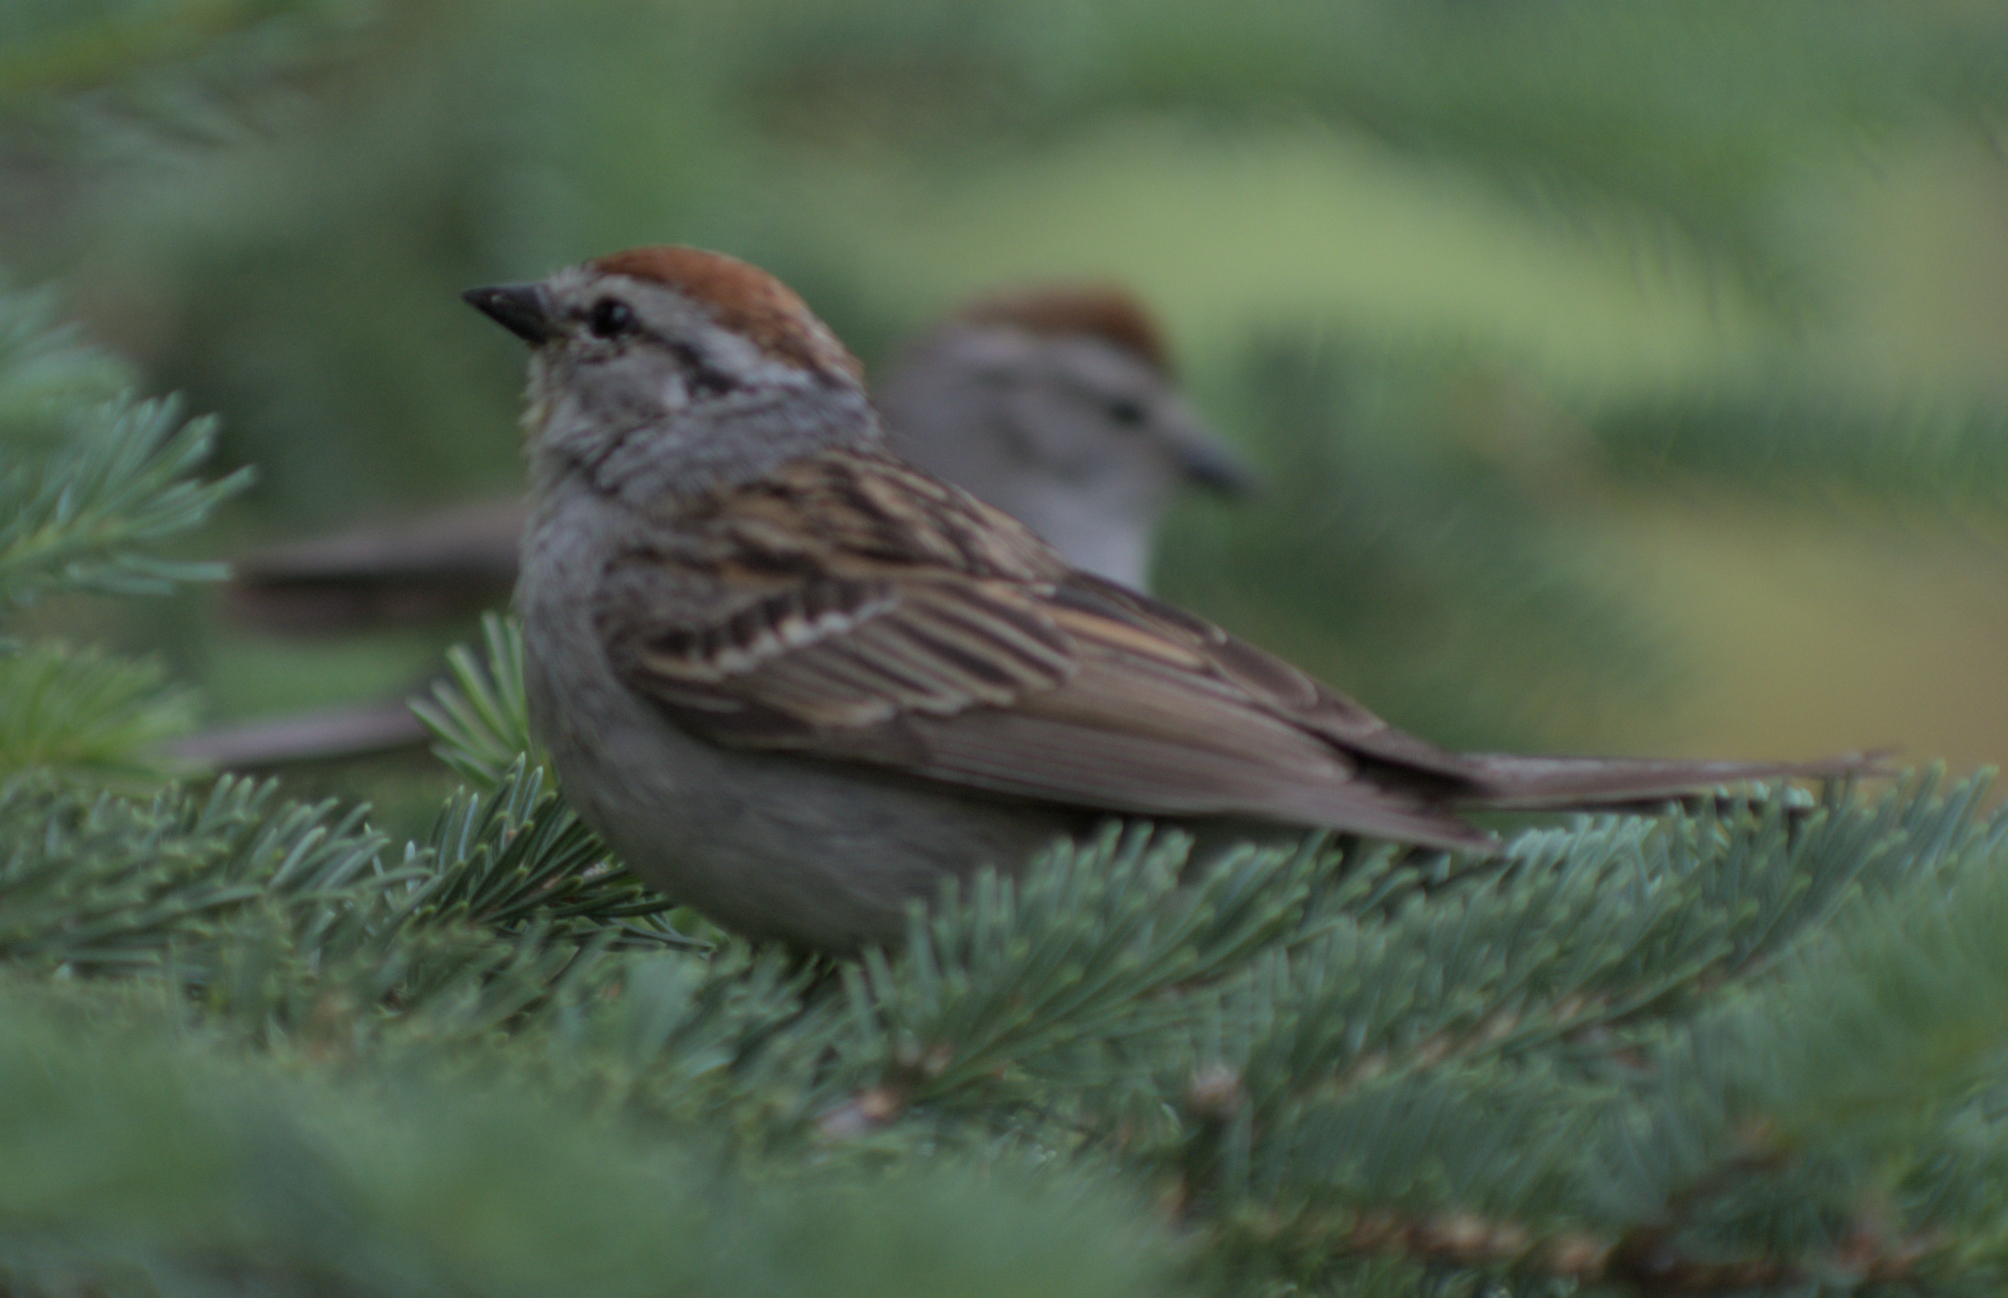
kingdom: Animalia
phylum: Chordata
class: Aves
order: Passeriformes
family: Passerellidae
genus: Spizella
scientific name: Spizella passerina
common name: Chipping sparrow
